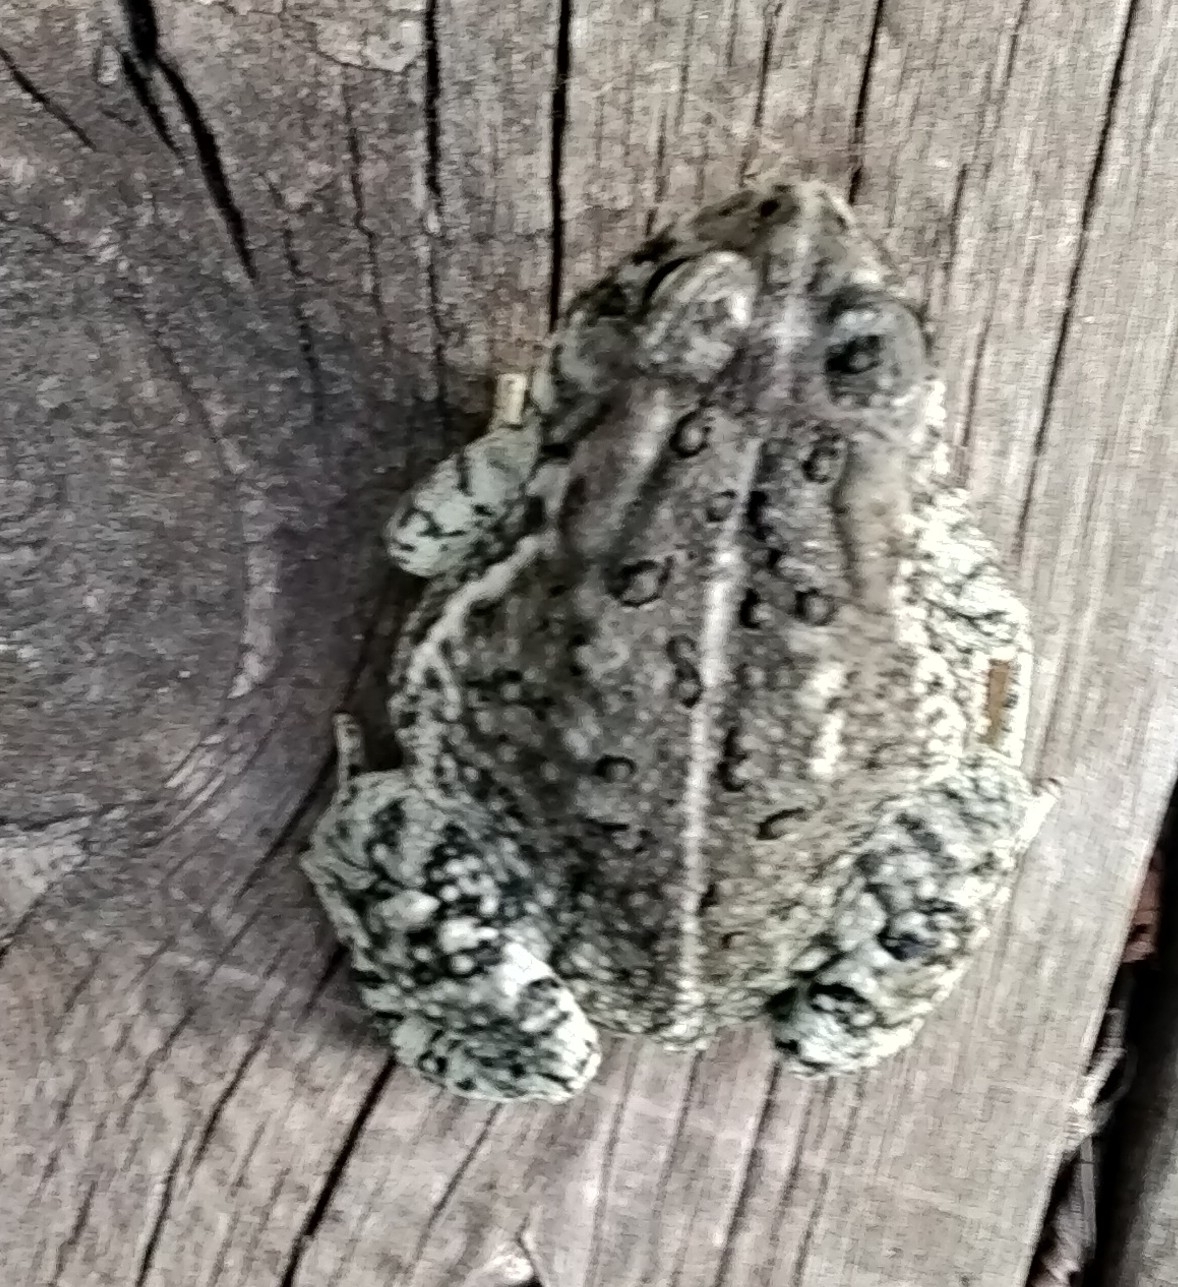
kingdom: Animalia
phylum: Chordata
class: Amphibia
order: Anura
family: Bufonidae
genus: Anaxyrus
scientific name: Anaxyrus woodhousii
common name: Woodhouse's toad
